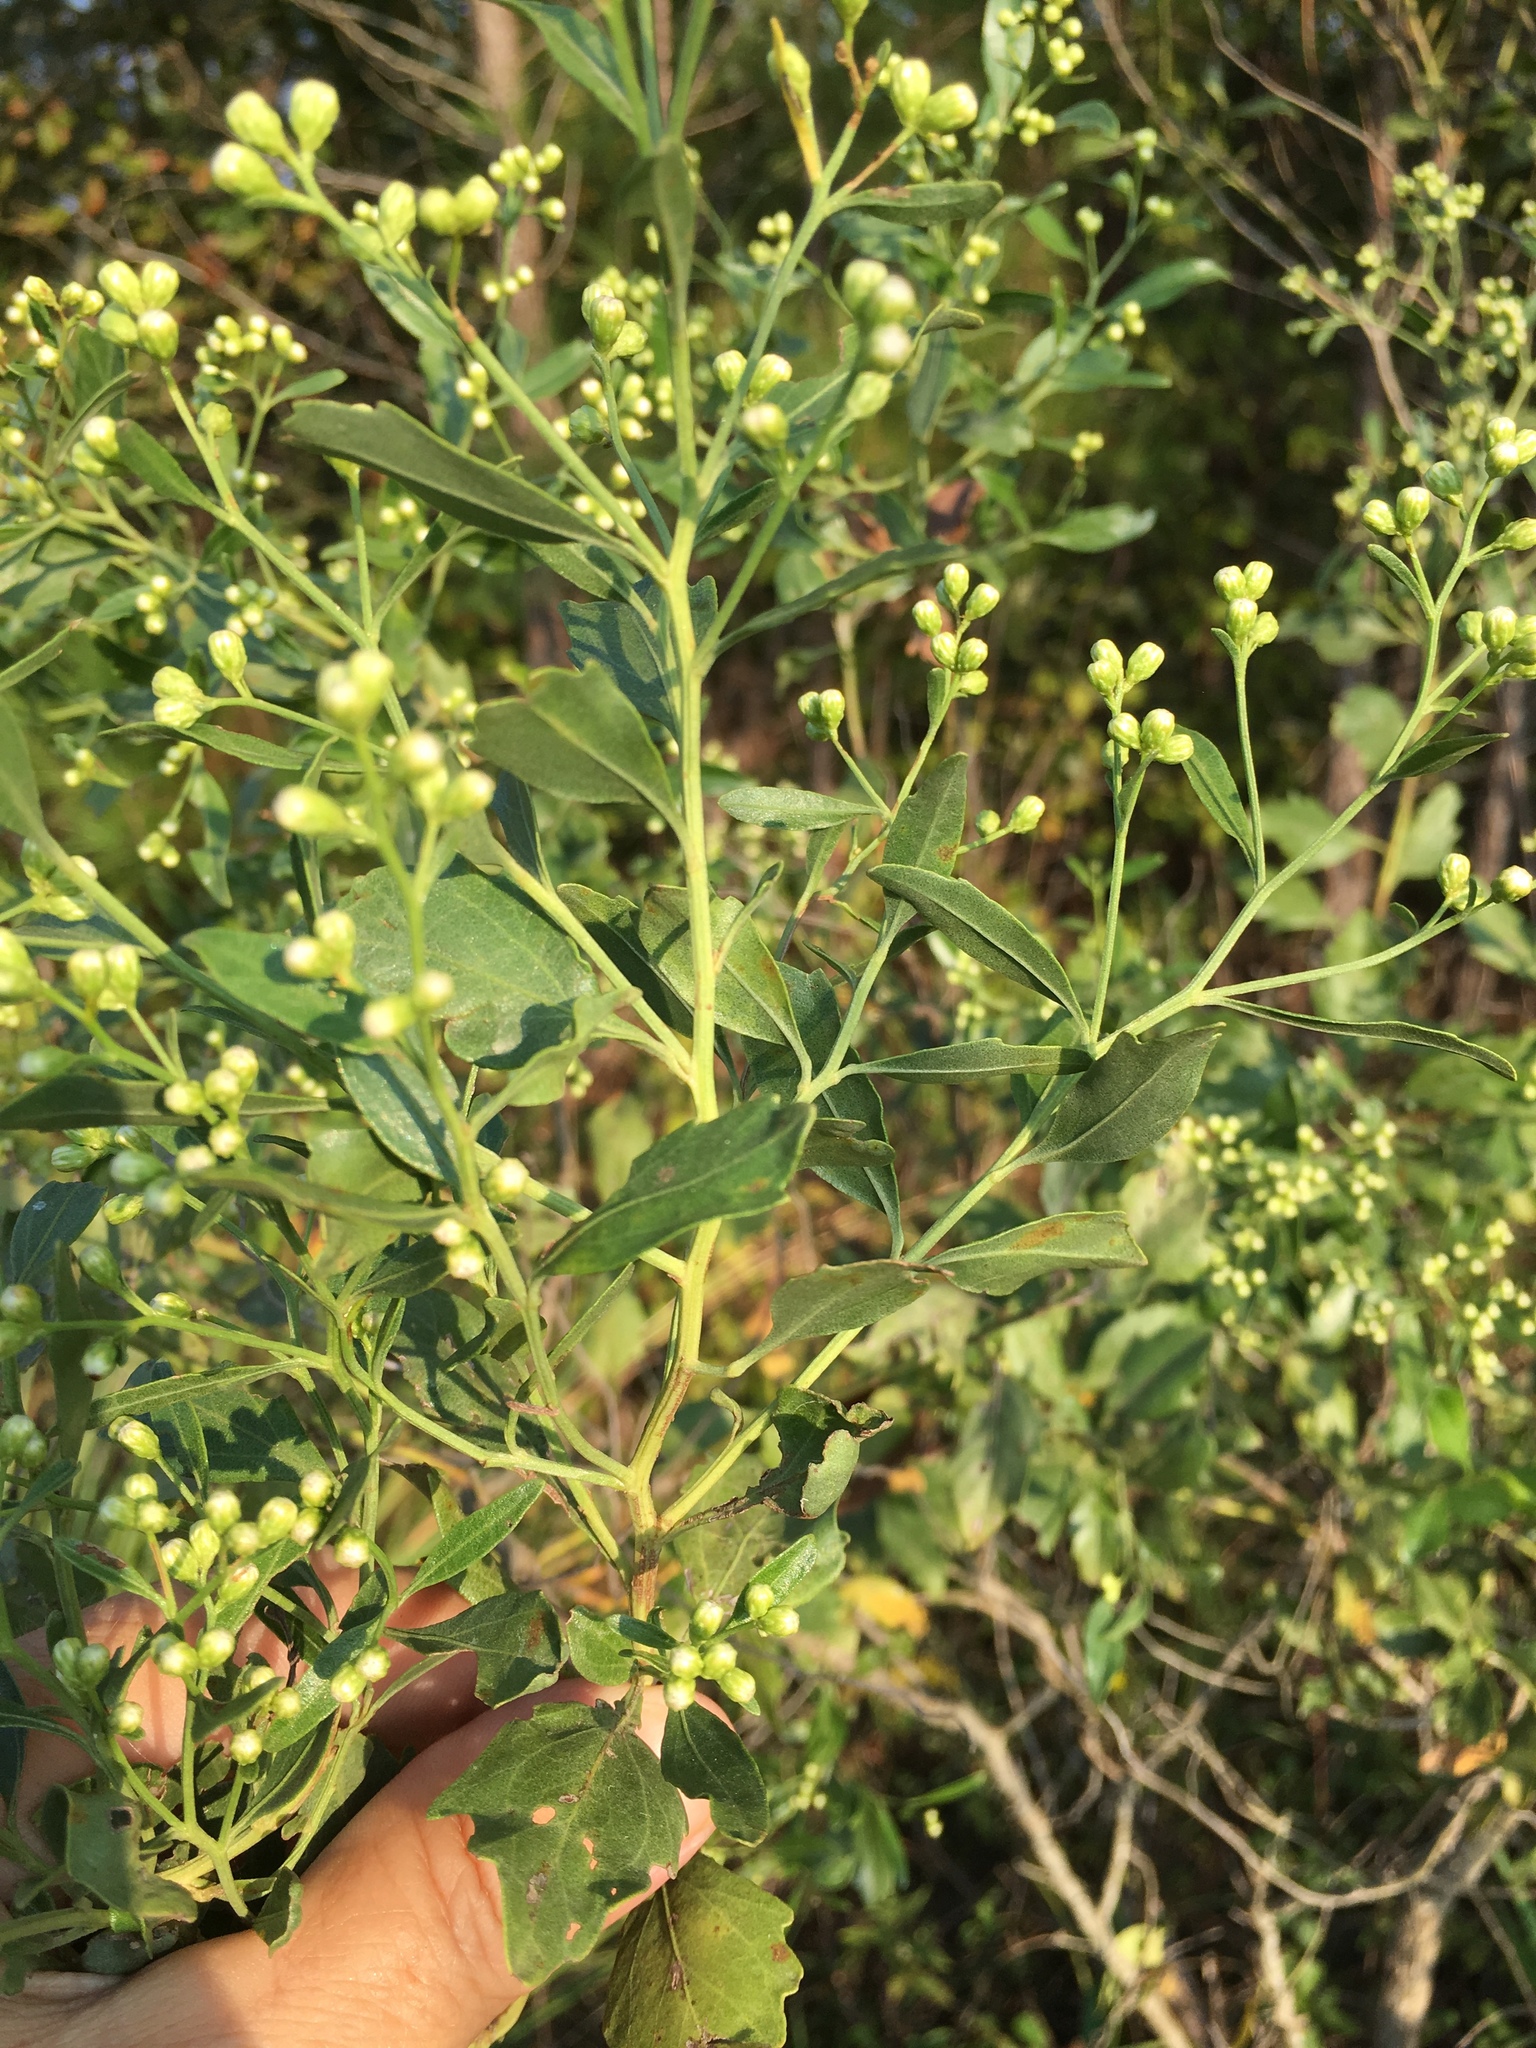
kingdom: Plantae
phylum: Tracheophyta
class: Magnoliopsida
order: Asterales
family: Asteraceae
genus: Baccharis
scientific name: Baccharis halimifolia
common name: Eastern baccharis
